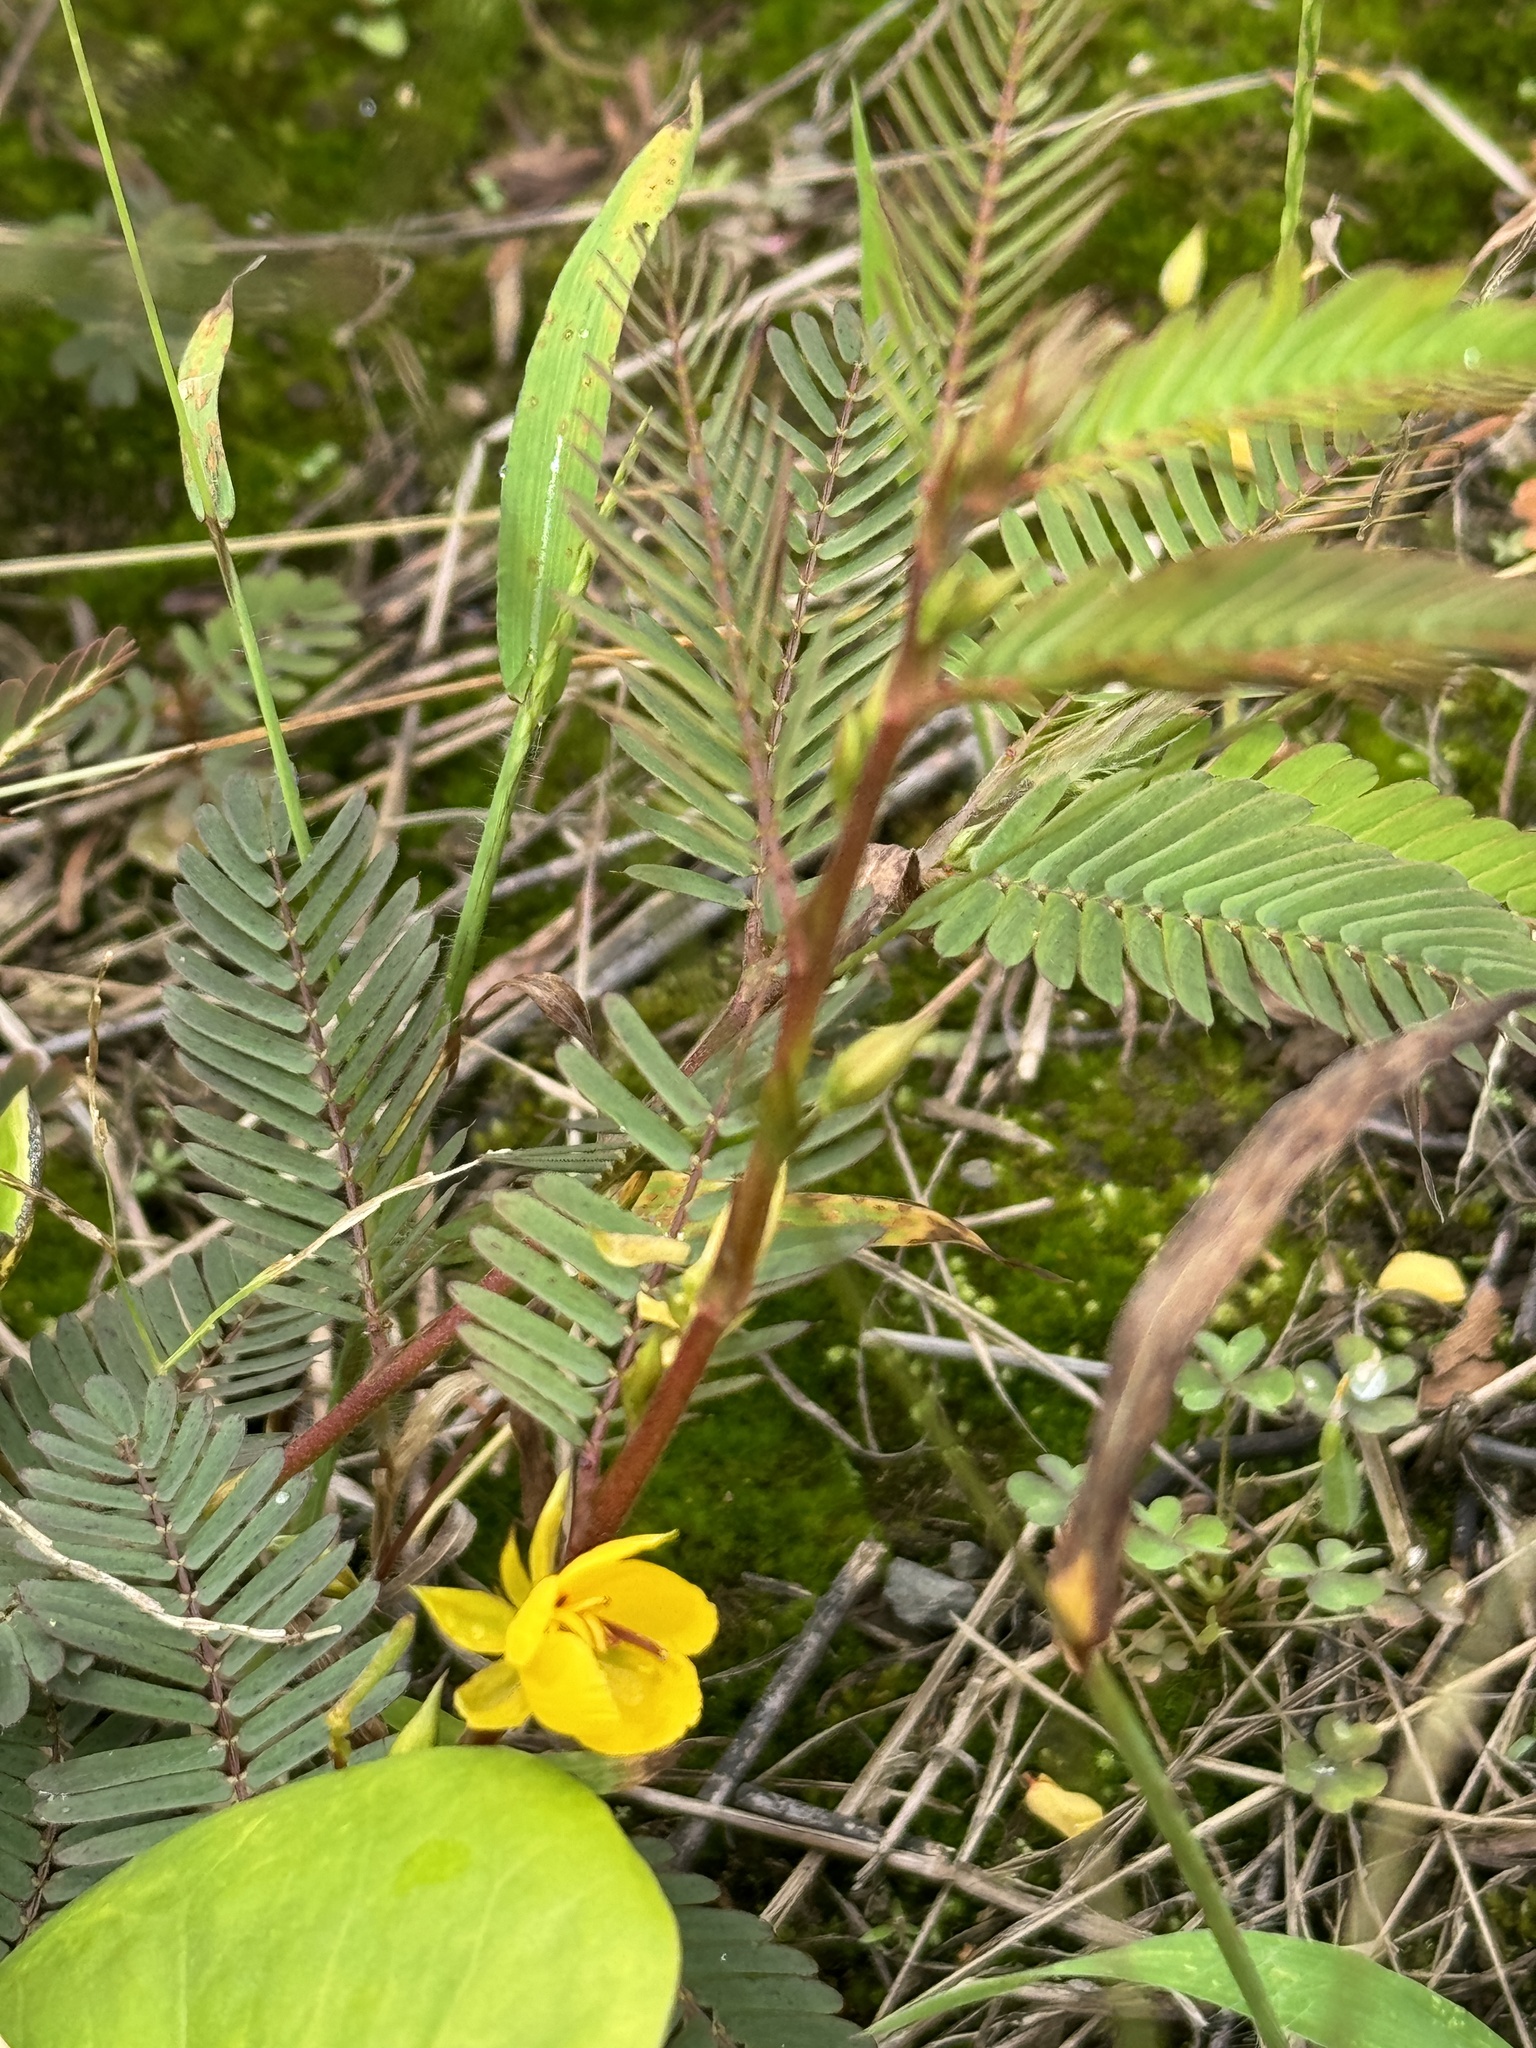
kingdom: Plantae
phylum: Tracheophyta
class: Magnoliopsida
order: Fabales
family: Fabaceae
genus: Chamaecrista
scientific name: Chamaecrista nictitans
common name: Sensitive cassia
